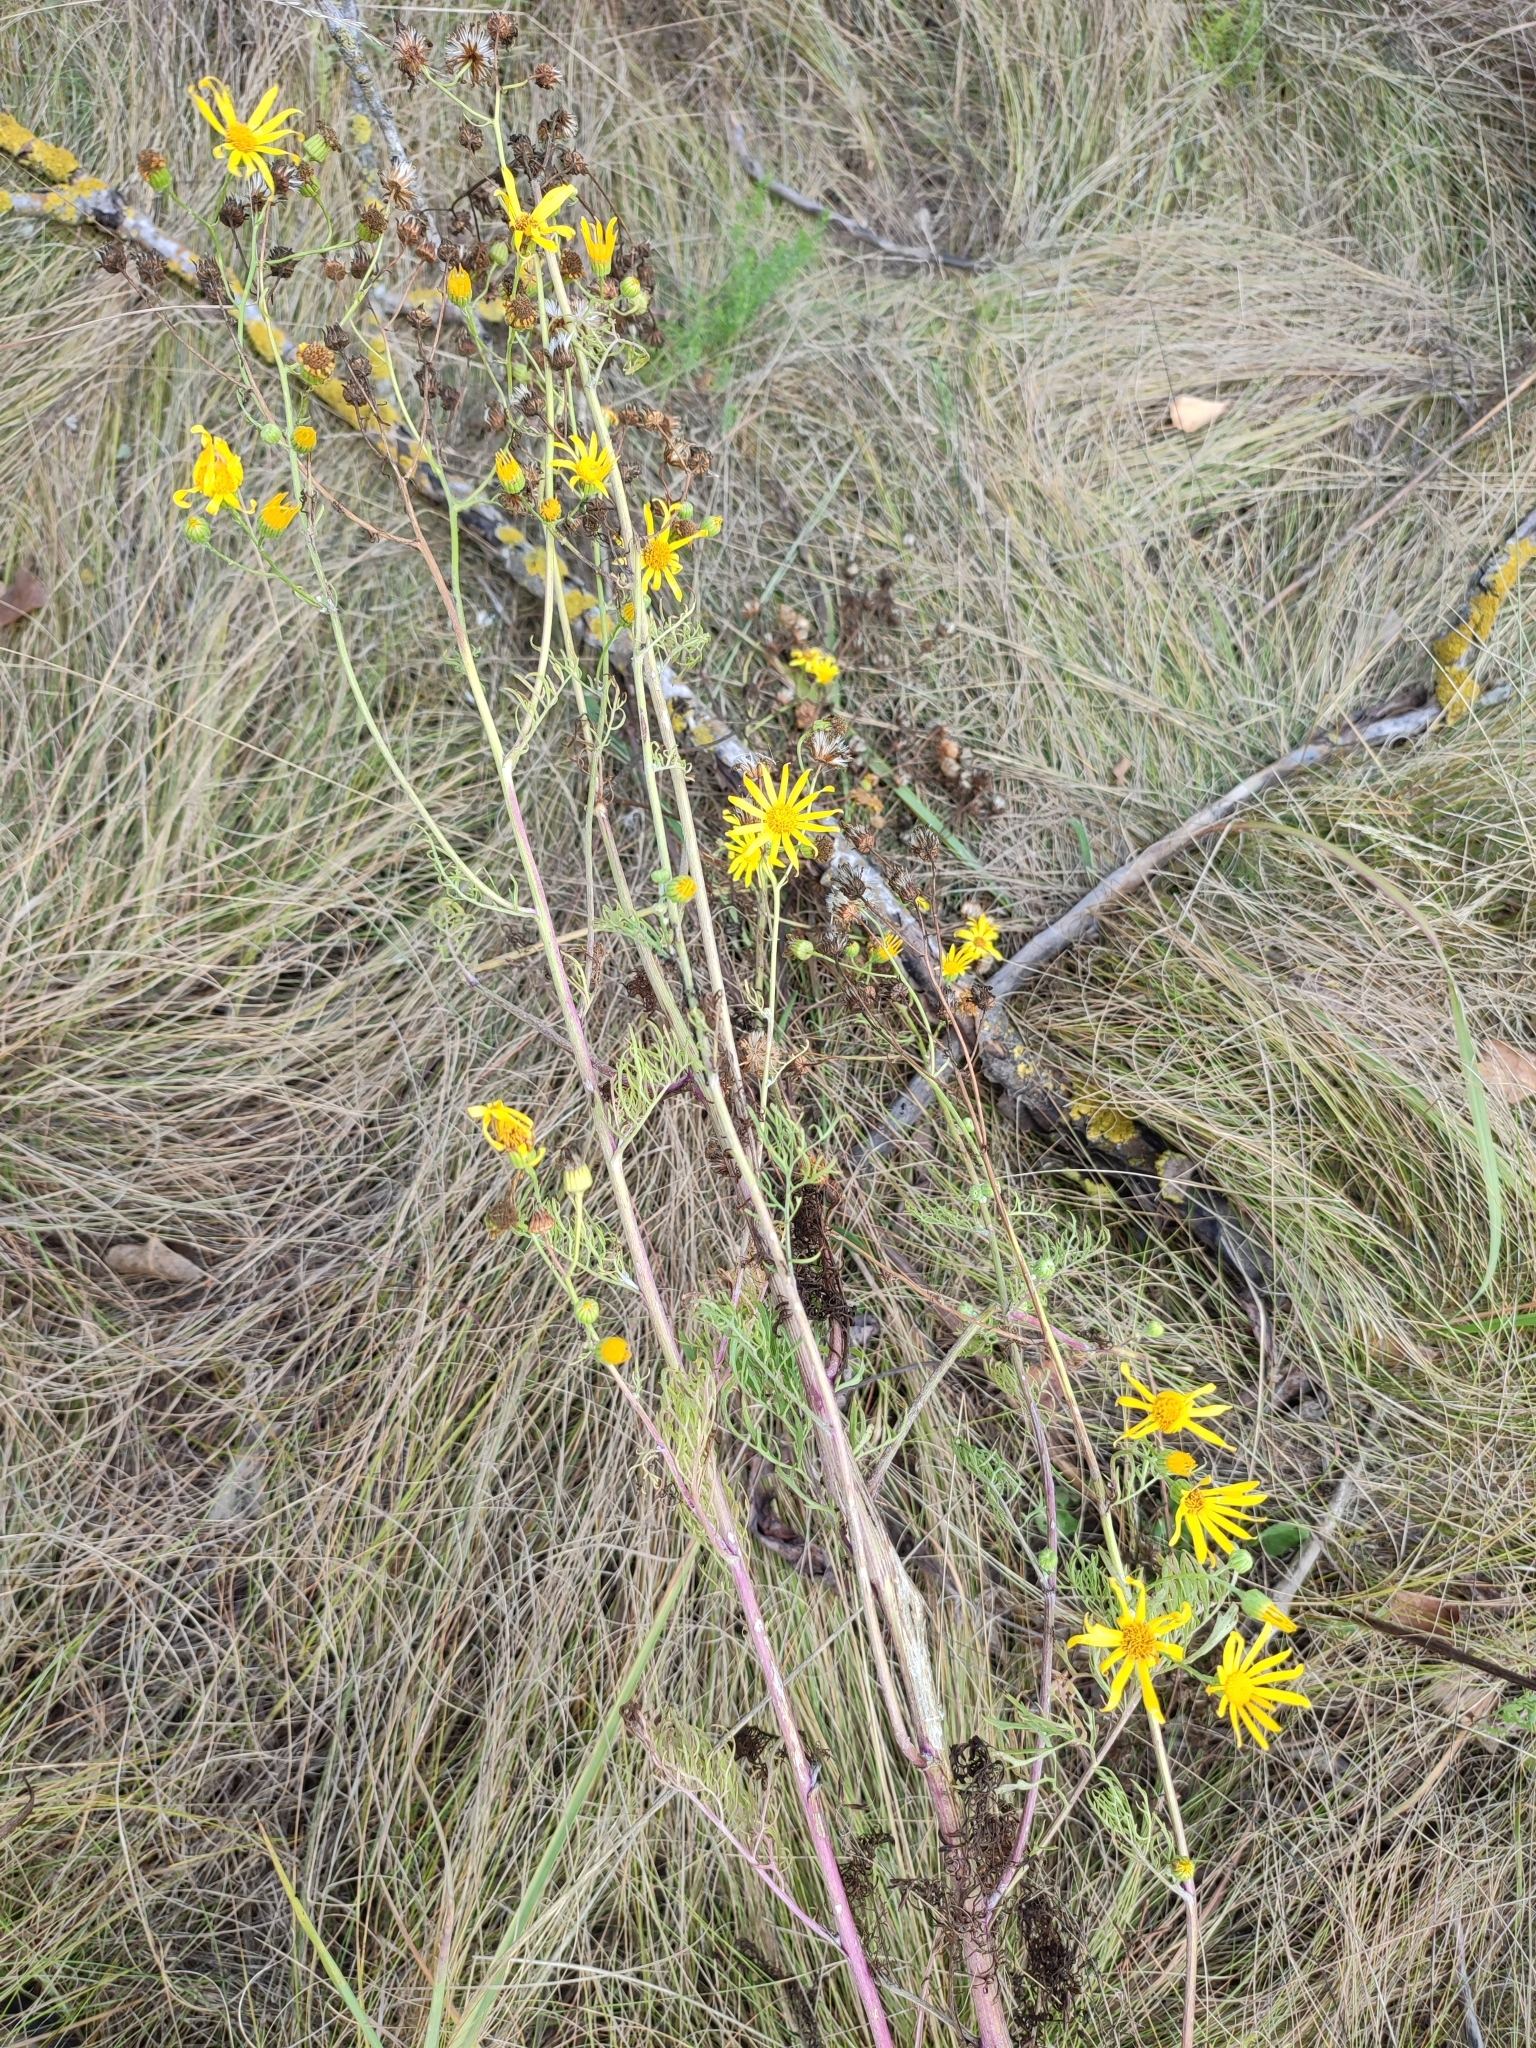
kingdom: Plantae
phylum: Tracheophyta
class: Magnoliopsida
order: Asterales
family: Asteraceae
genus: Jacobaea
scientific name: Jacobaea borysthenica
